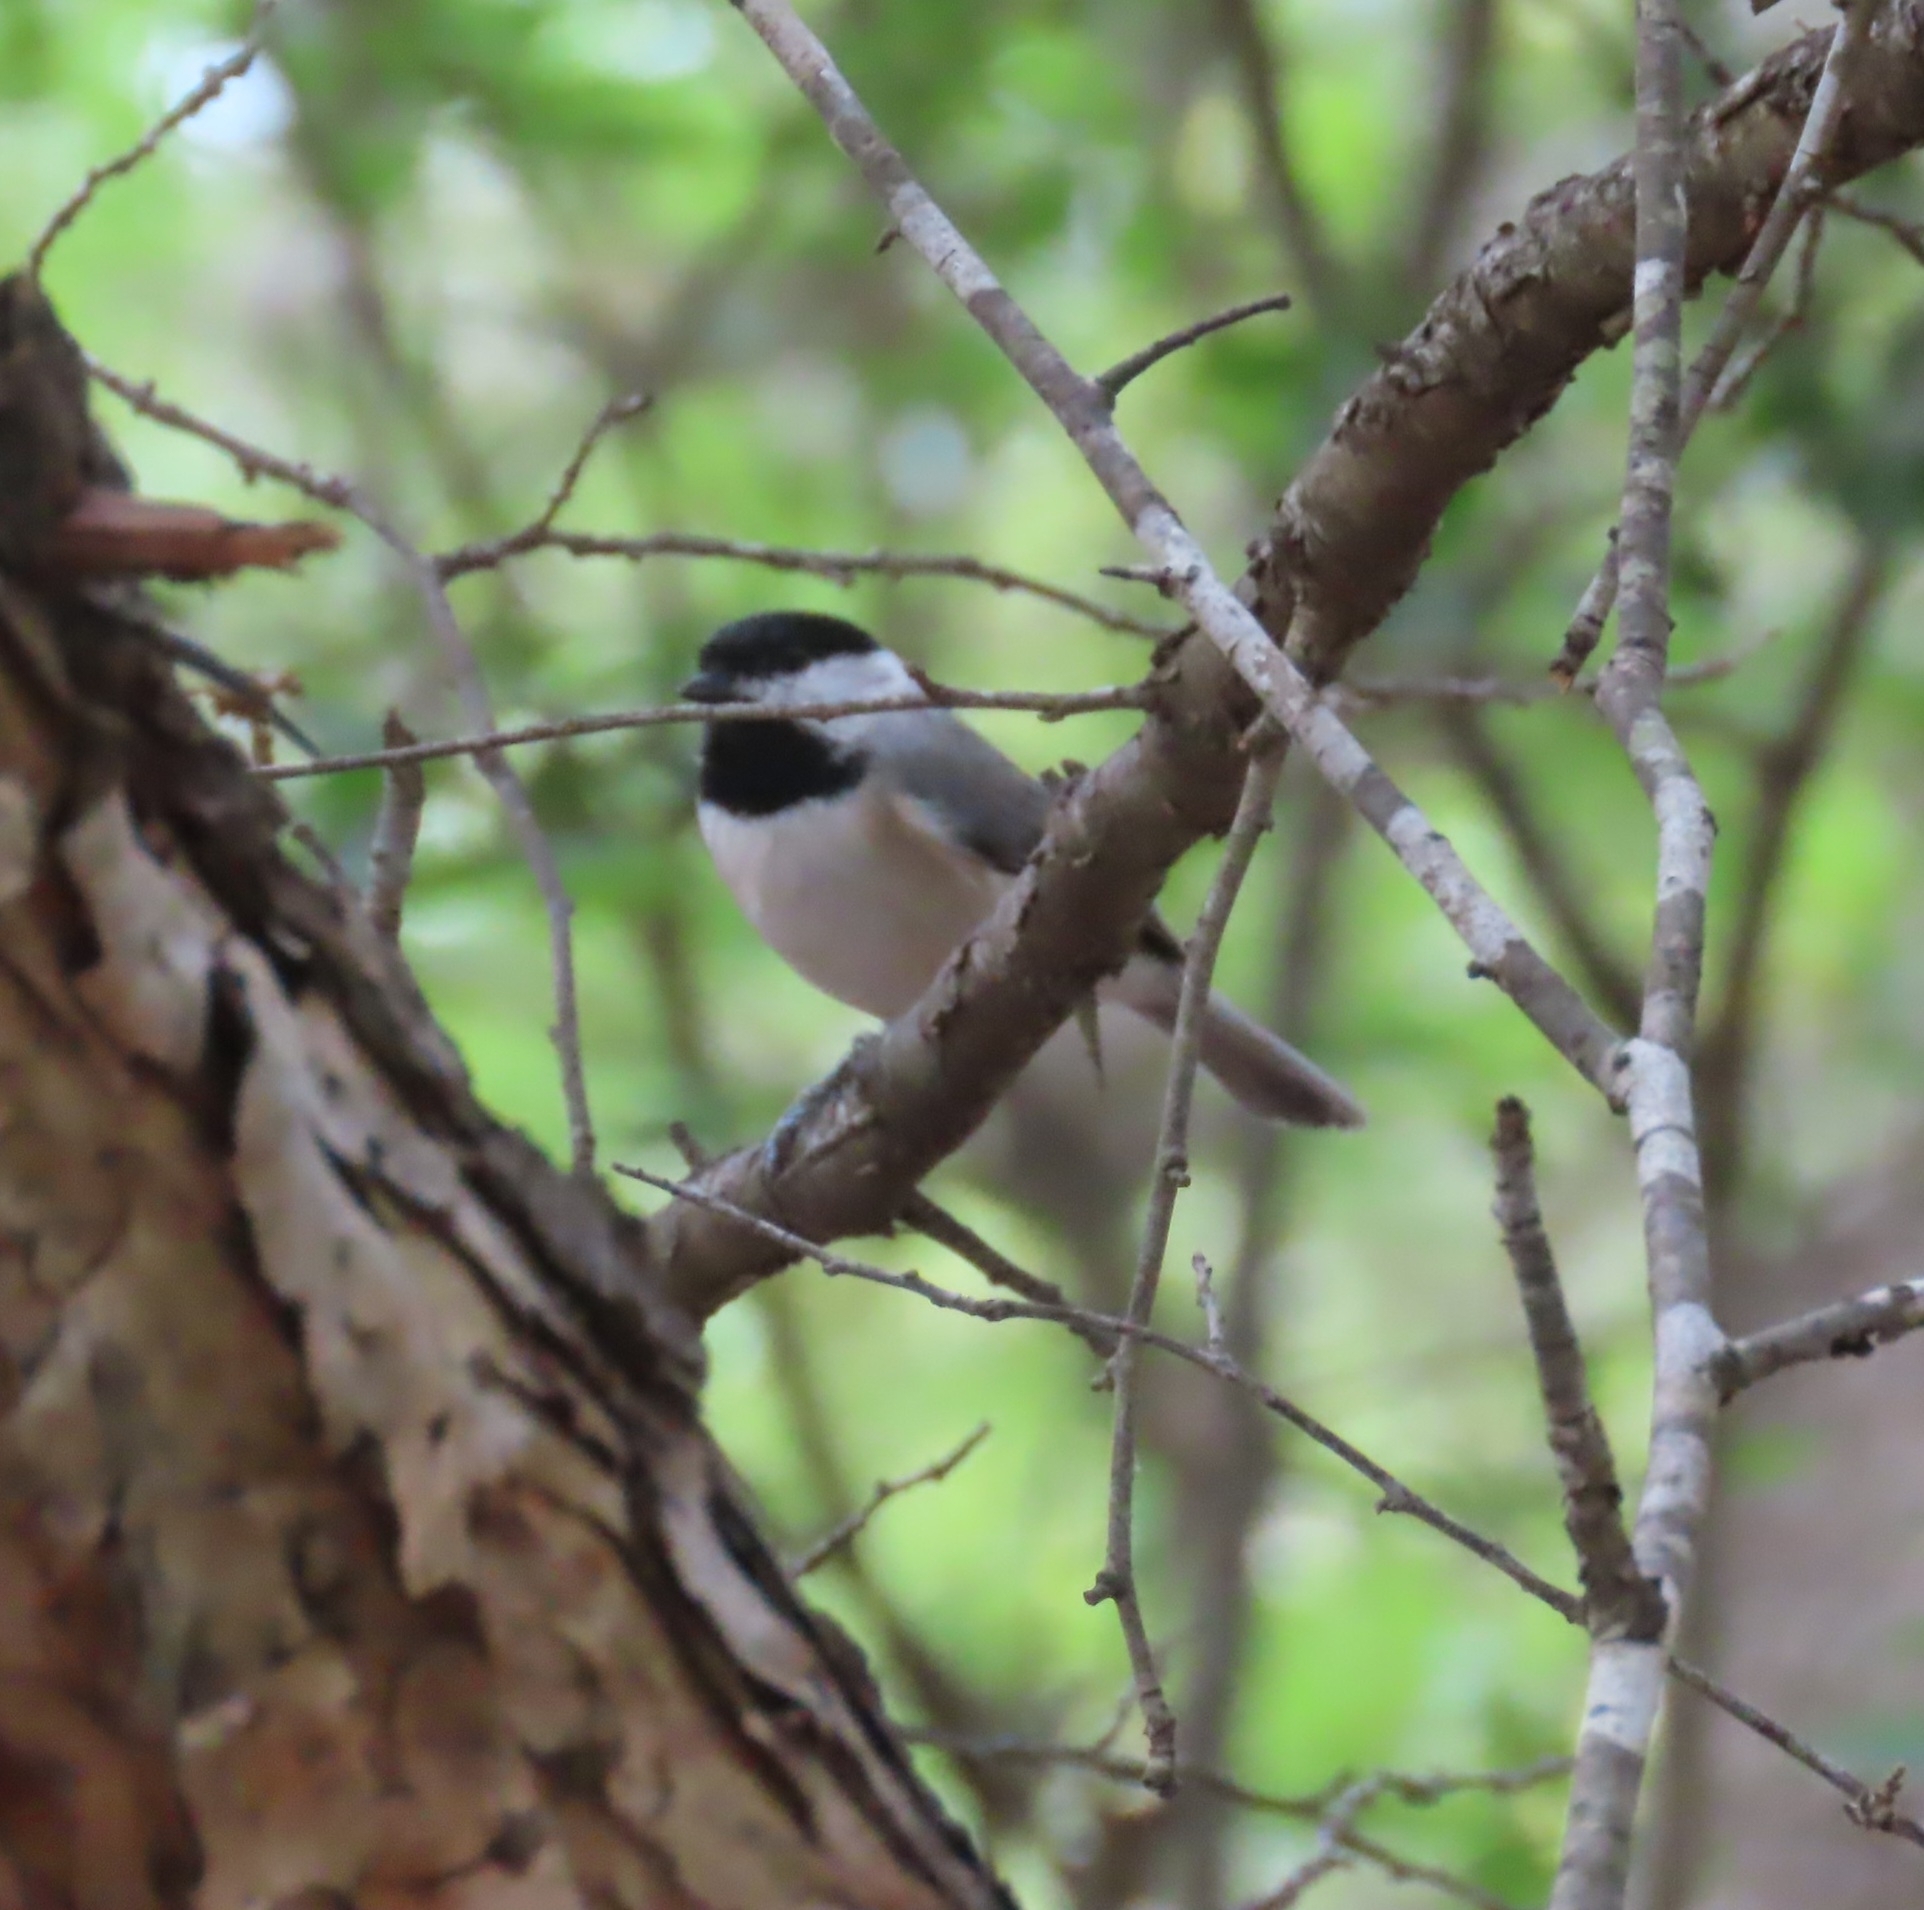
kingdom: Animalia
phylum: Chordata
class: Aves
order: Passeriformes
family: Paridae
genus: Poecile
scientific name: Poecile carolinensis
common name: Carolina chickadee
